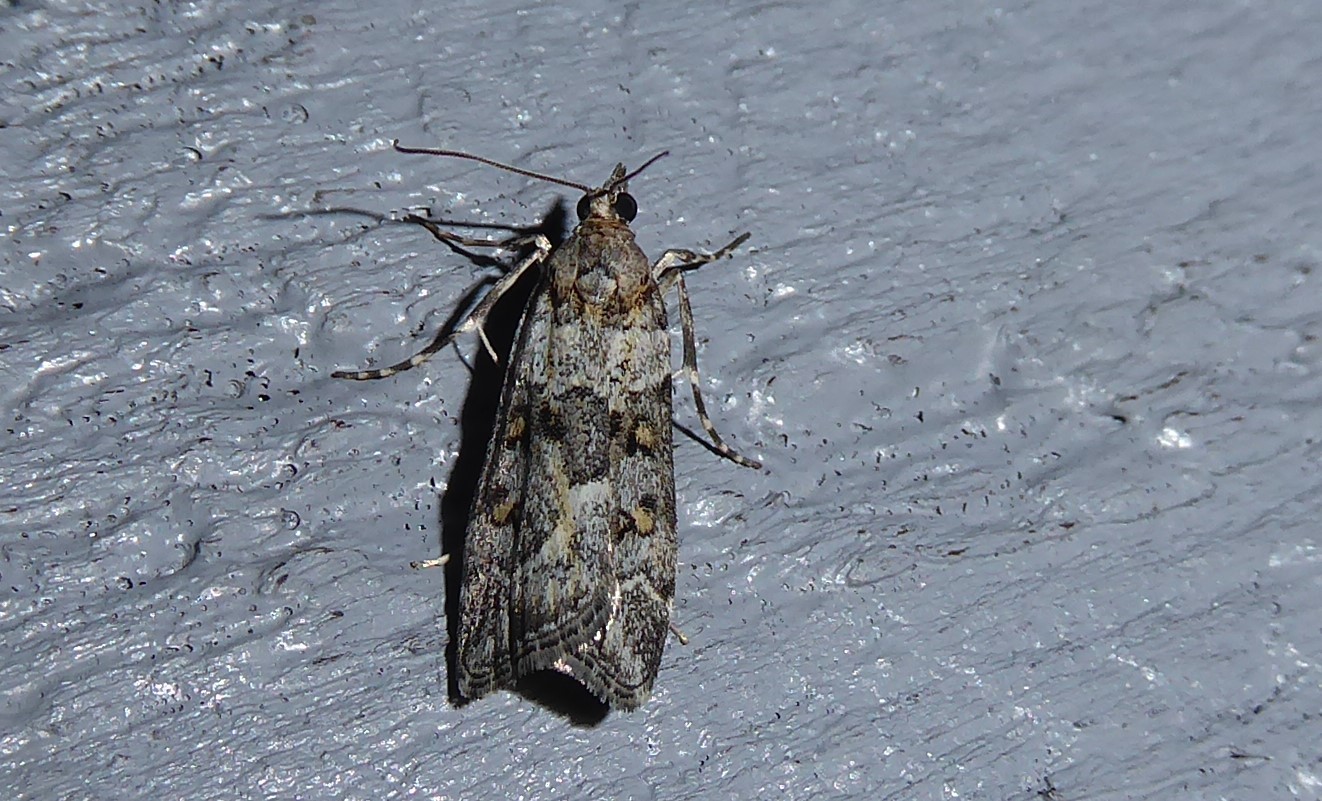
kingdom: Animalia
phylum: Arthropoda
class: Insecta
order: Lepidoptera
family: Crambidae
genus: Eudonia
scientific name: Eudonia diphtheralis
